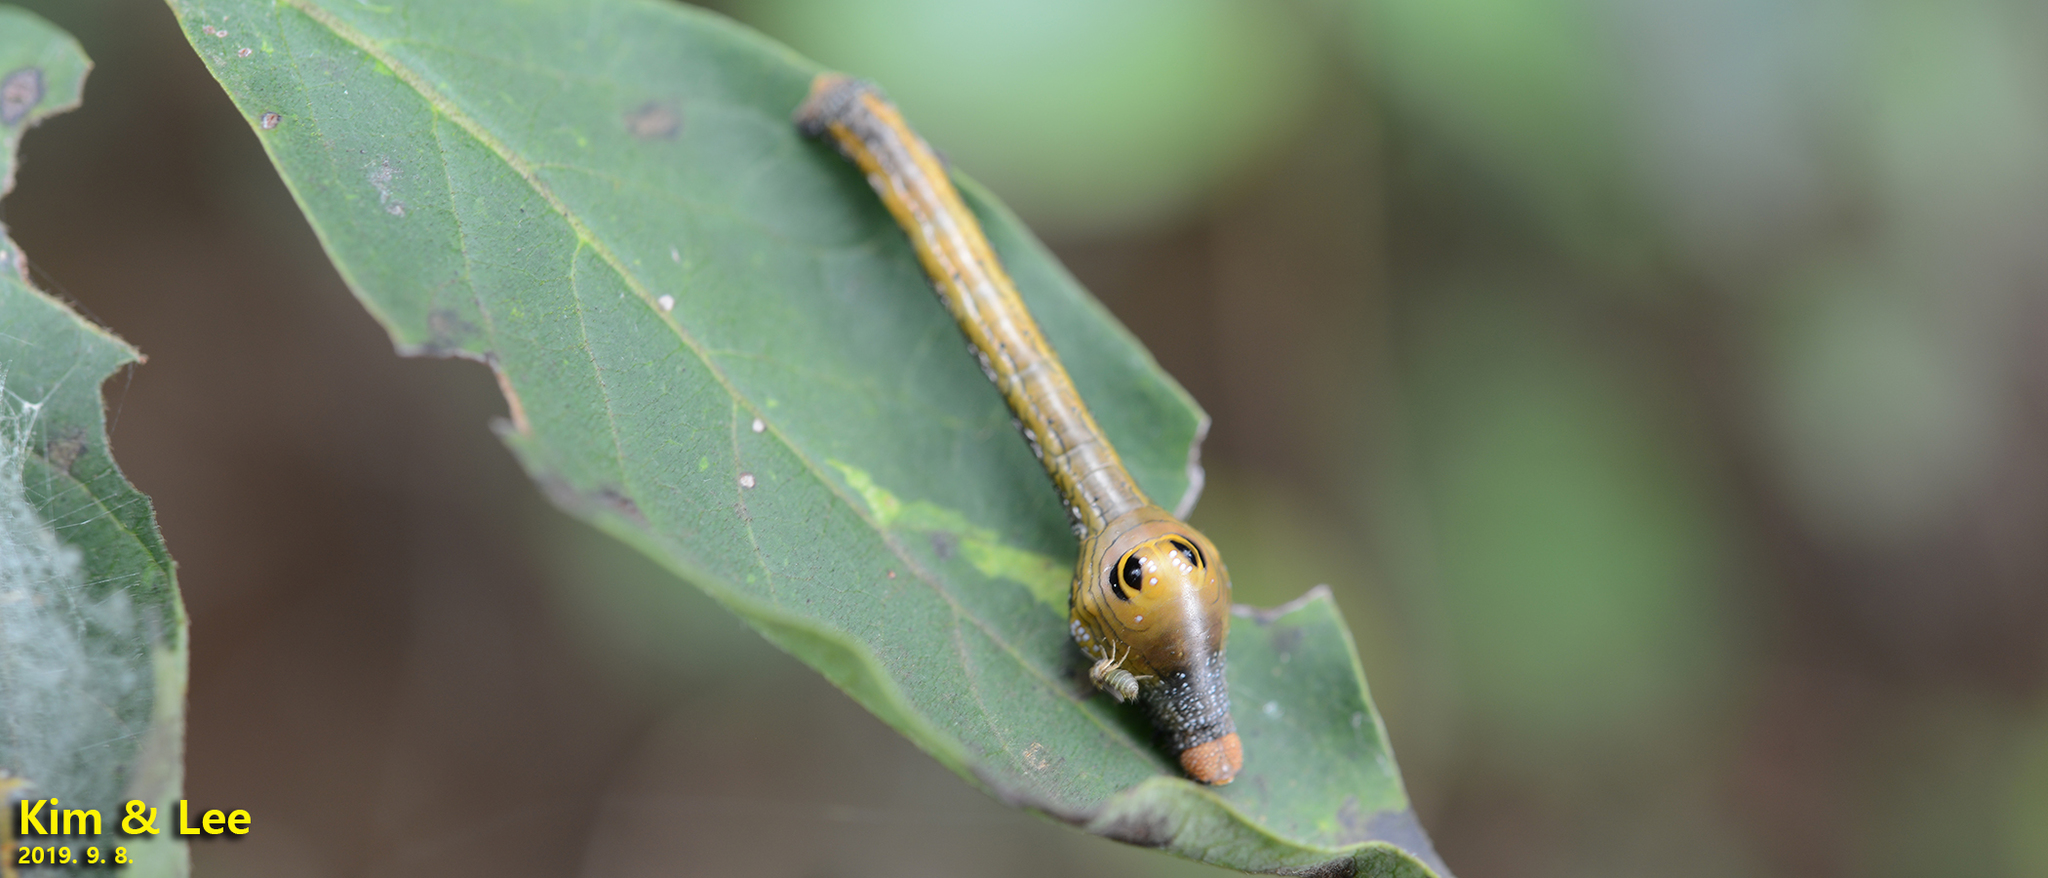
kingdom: Animalia
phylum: Arthropoda
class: Insecta
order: Lepidoptera
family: Geometridae
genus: Parapercnia
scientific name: Parapercnia giraffata
